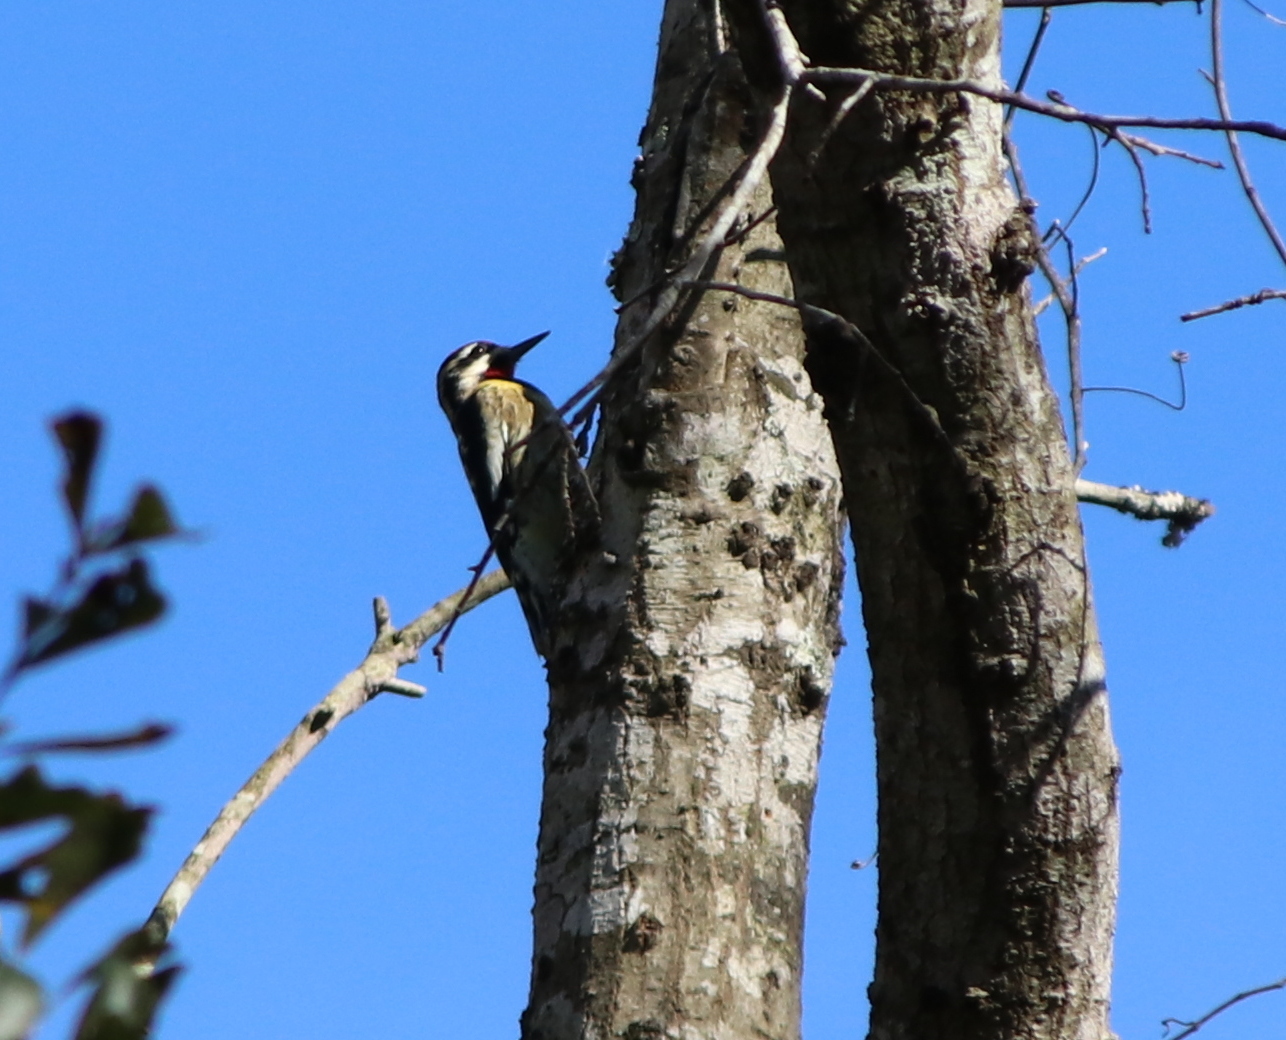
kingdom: Animalia
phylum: Chordata
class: Aves
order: Piciformes
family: Picidae
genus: Sphyrapicus
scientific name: Sphyrapicus varius
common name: Yellow-bellied sapsucker
